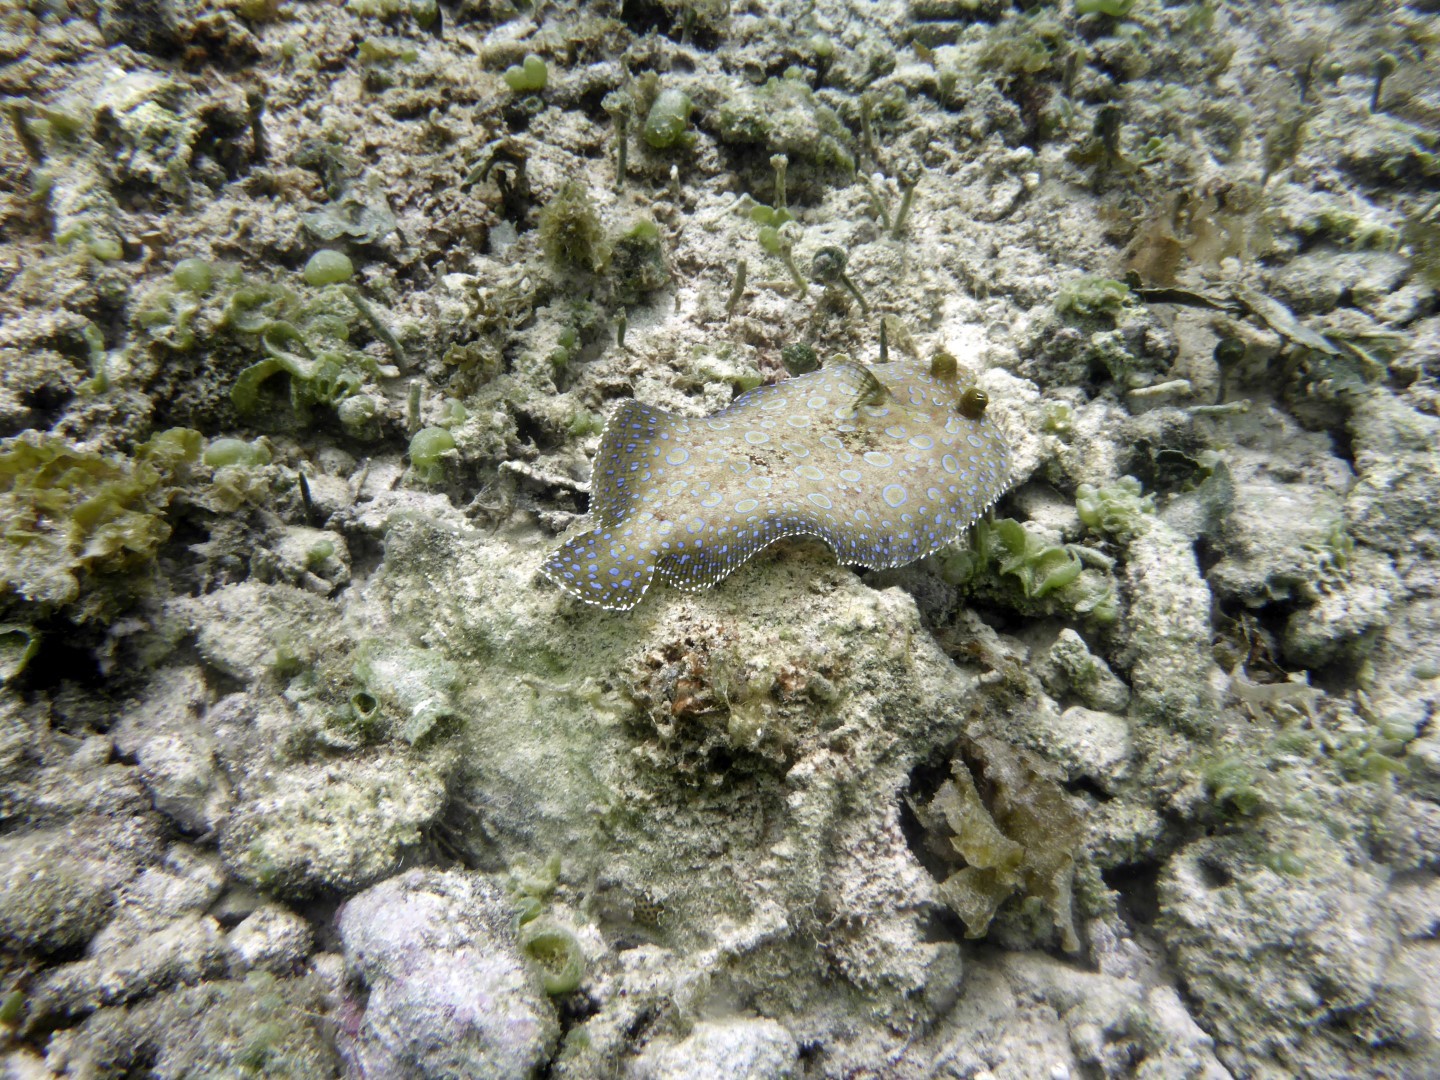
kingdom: Animalia
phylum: Chordata
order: Pleuronectiformes
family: Bothidae
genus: Bothus
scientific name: Bothus lunatus
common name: Peacock flounder
